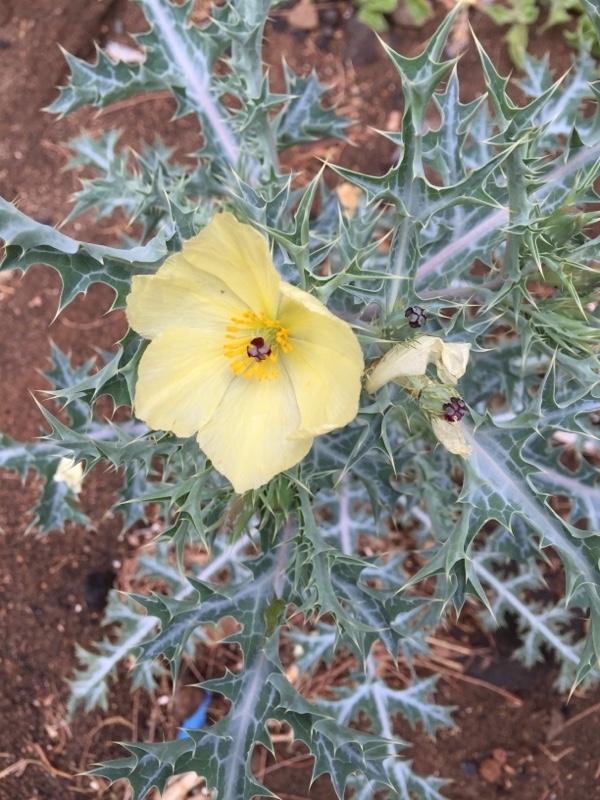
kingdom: Plantae
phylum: Tracheophyta
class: Magnoliopsida
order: Ranunculales
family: Papaveraceae
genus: Argemone
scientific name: Argemone ochroleuca
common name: White-flower mexican-poppy
